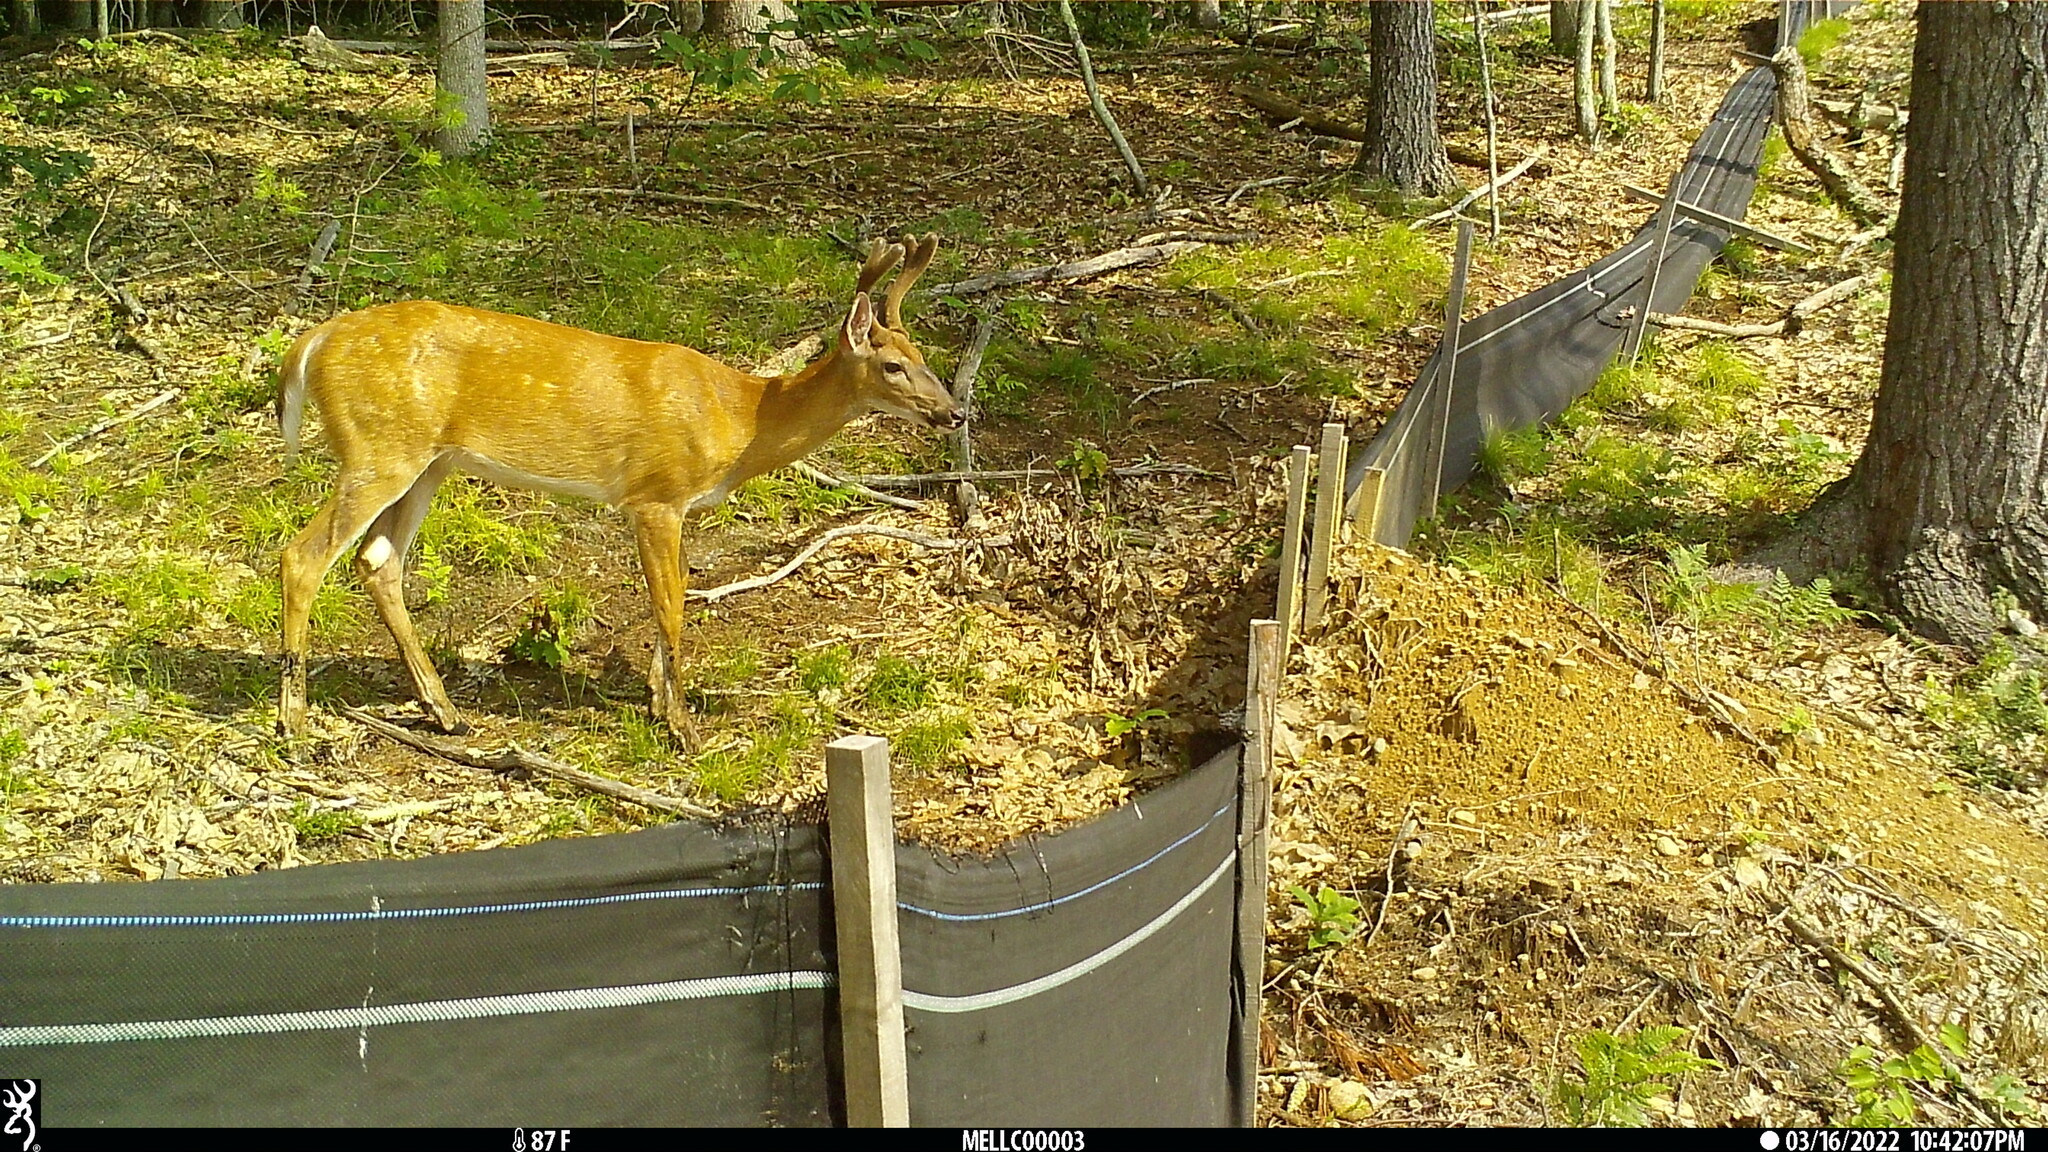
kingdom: Animalia
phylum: Chordata
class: Mammalia
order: Artiodactyla
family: Cervidae
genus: Odocoileus
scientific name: Odocoileus virginianus
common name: White-tailed deer
